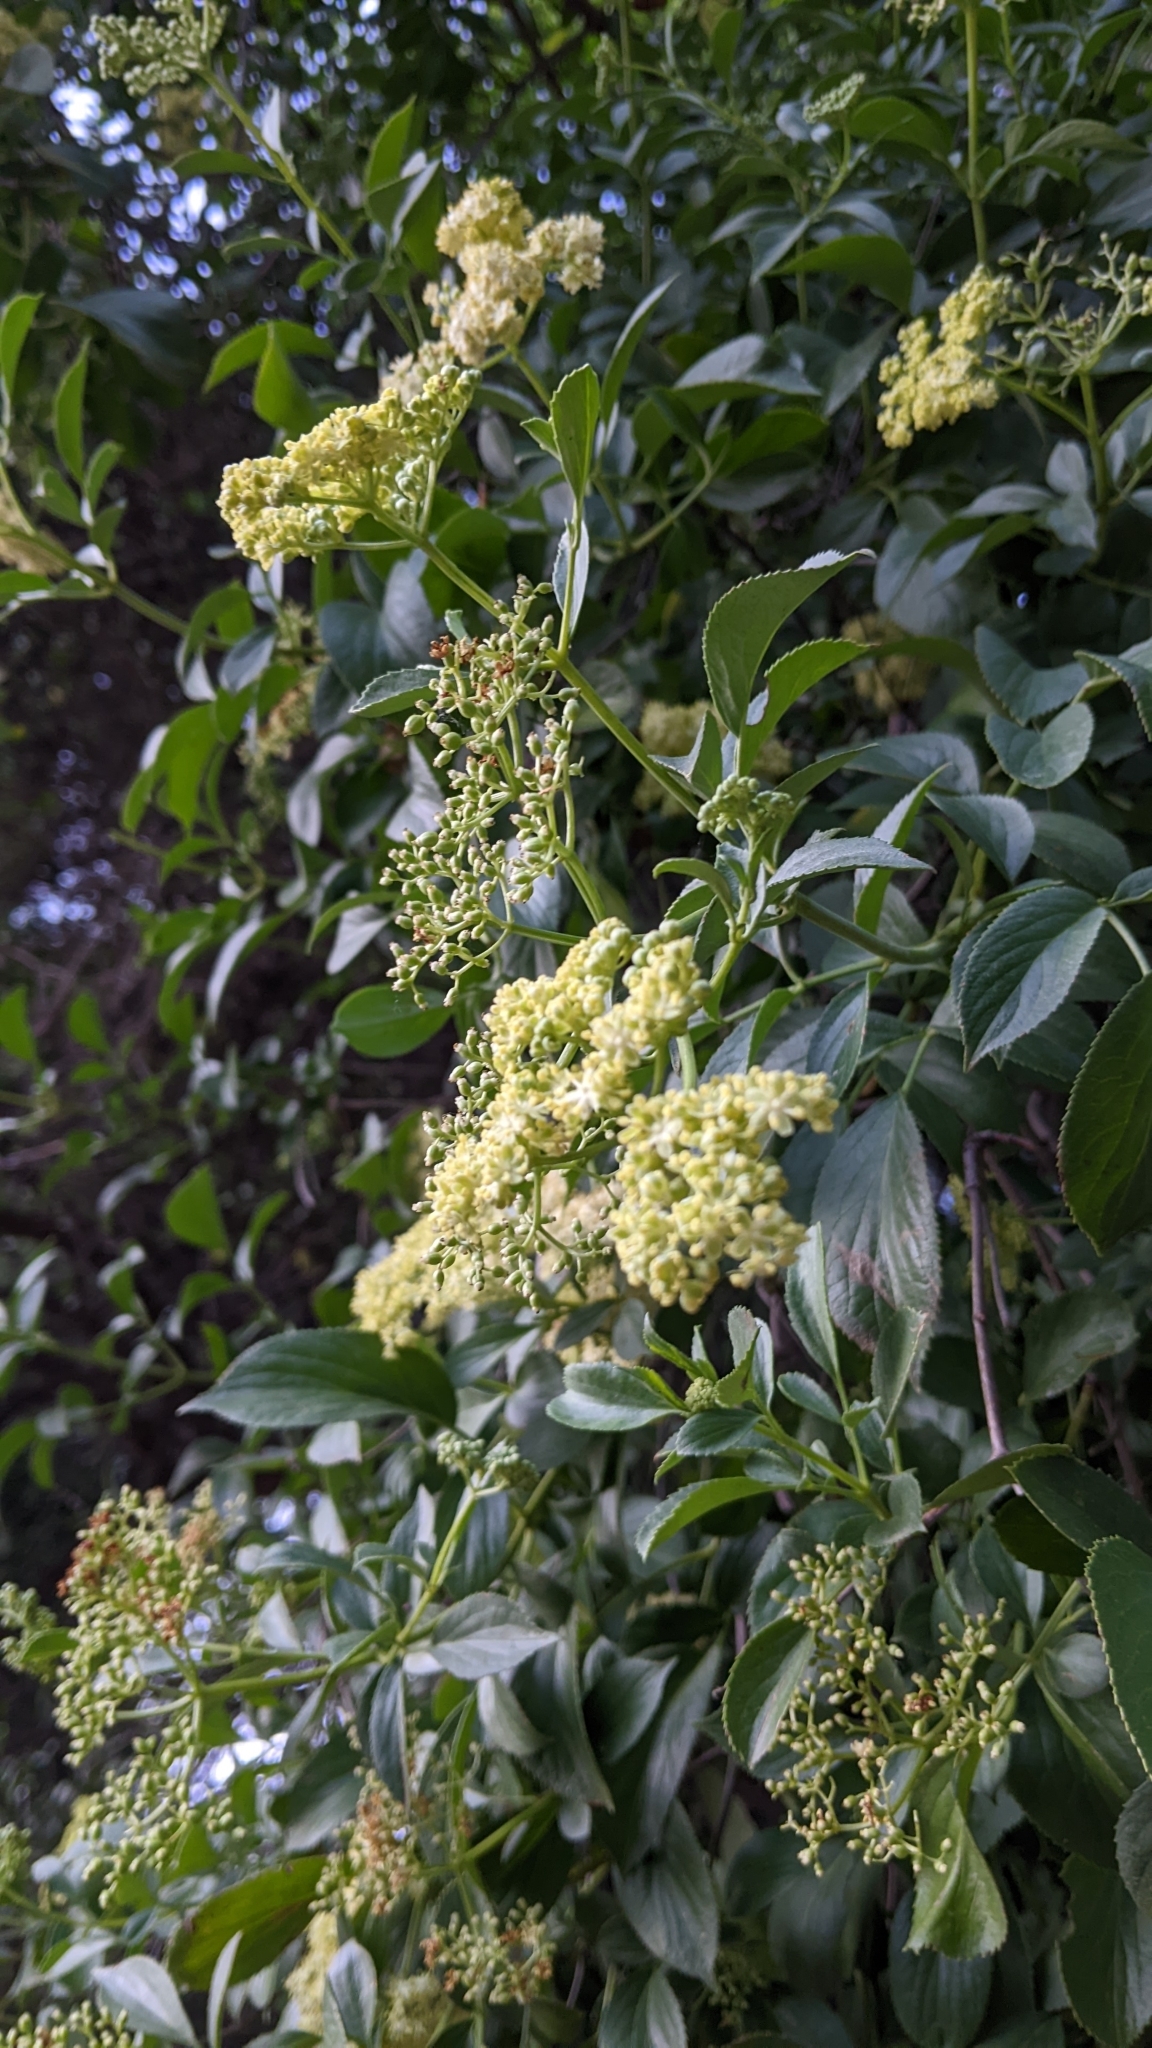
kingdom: Plantae
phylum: Tracheophyta
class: Magnoliopsida
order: Dipsacales
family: Viburnaceae
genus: Sambucus
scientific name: Sambucus cerulea
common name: Blue elder
